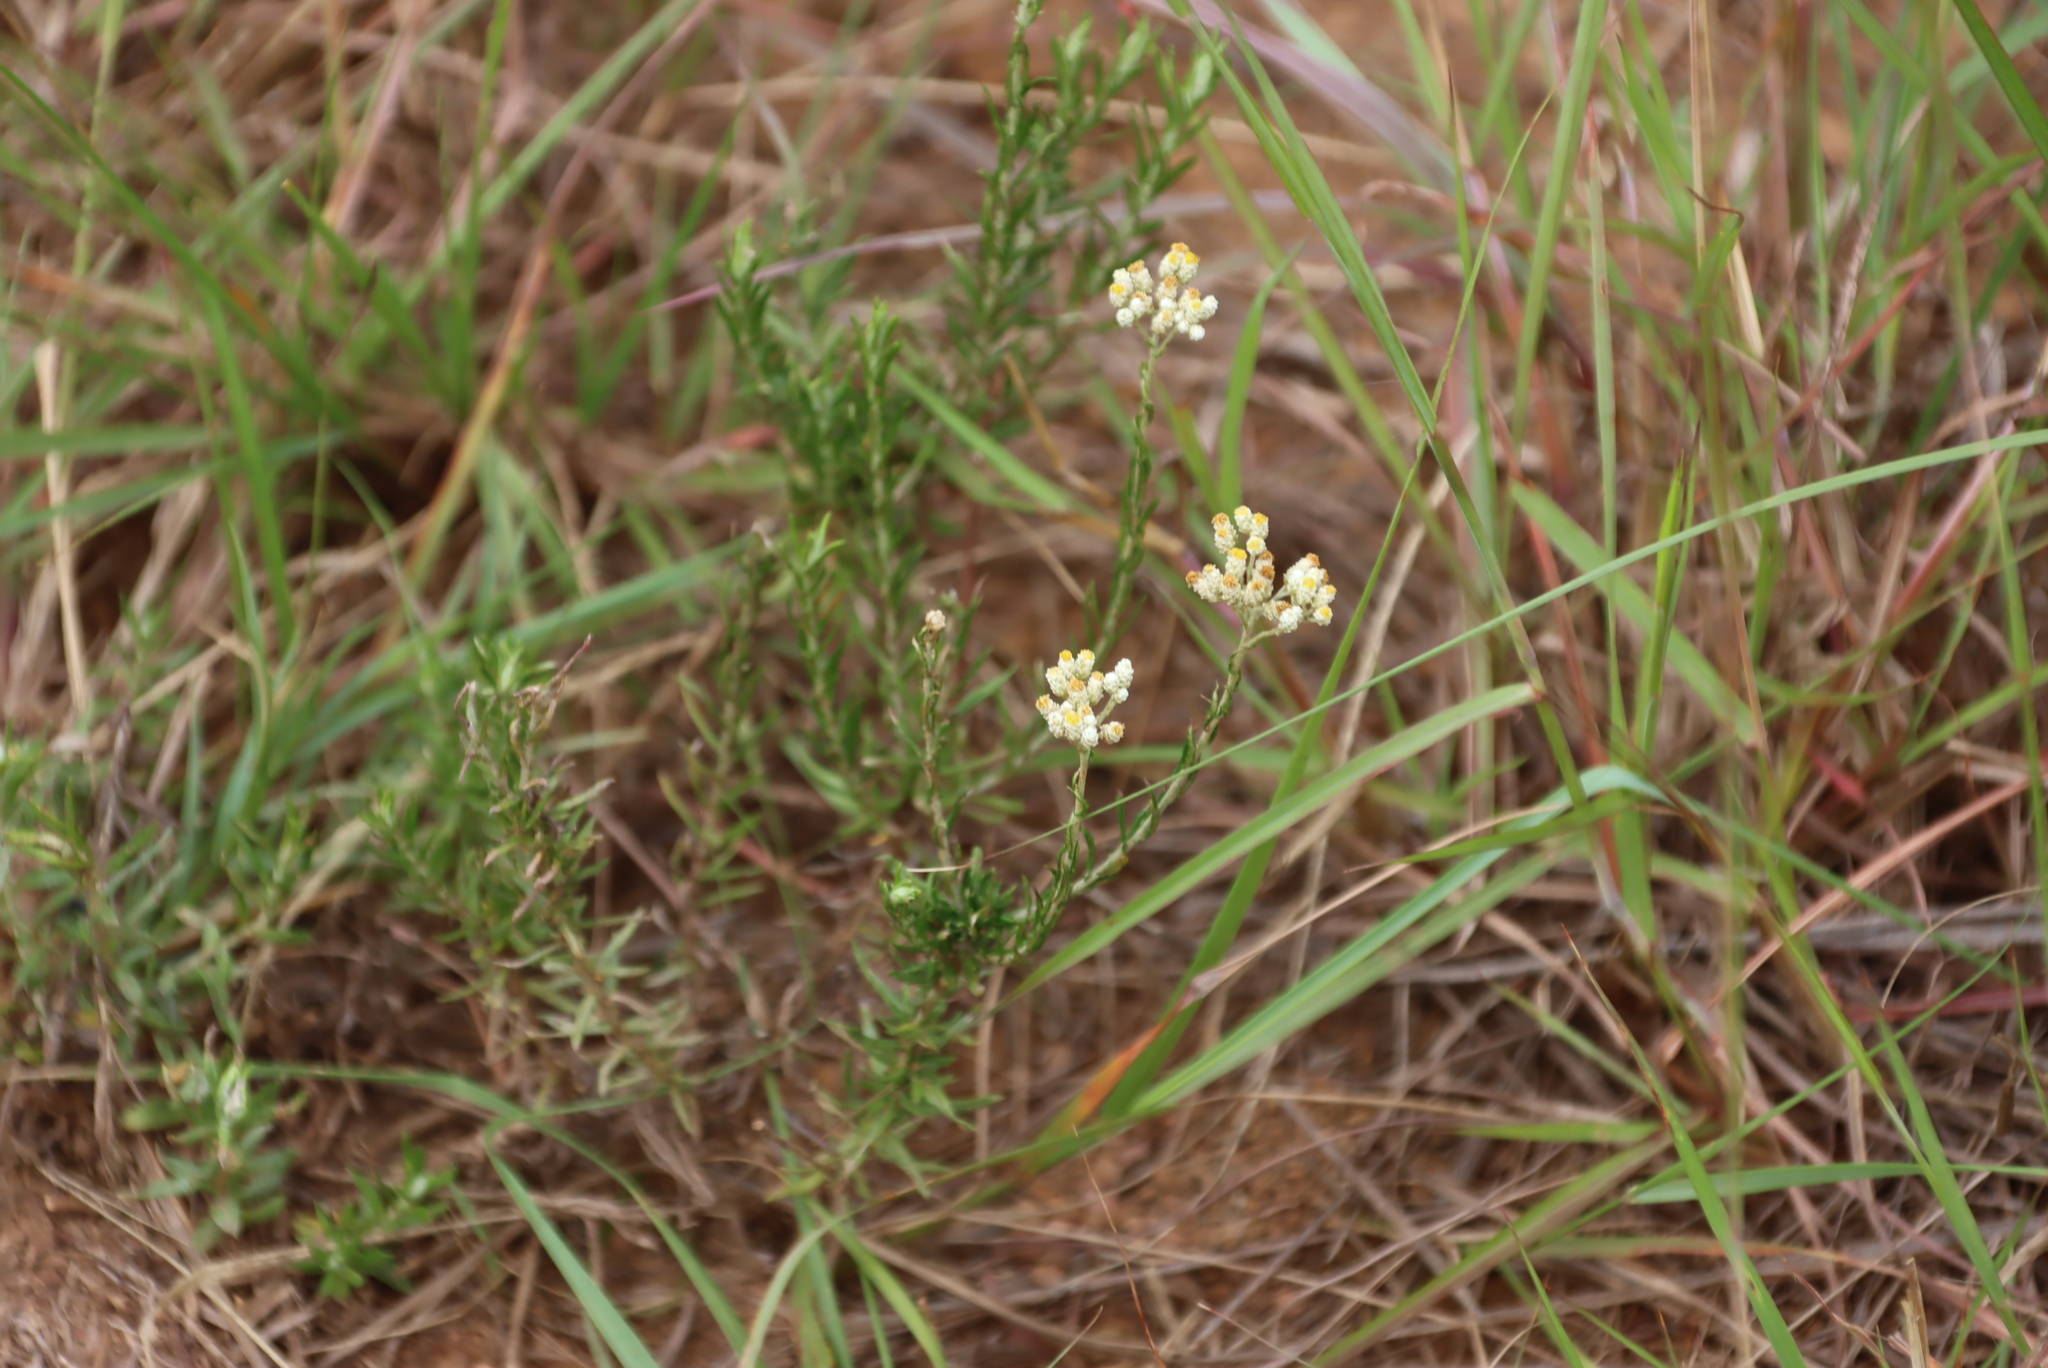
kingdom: Plantae
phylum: Tracheophyta
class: Magnoliopsida
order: Asterales
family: Asteraceae
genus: Helichrysum
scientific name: Helichrysum rugulosum
